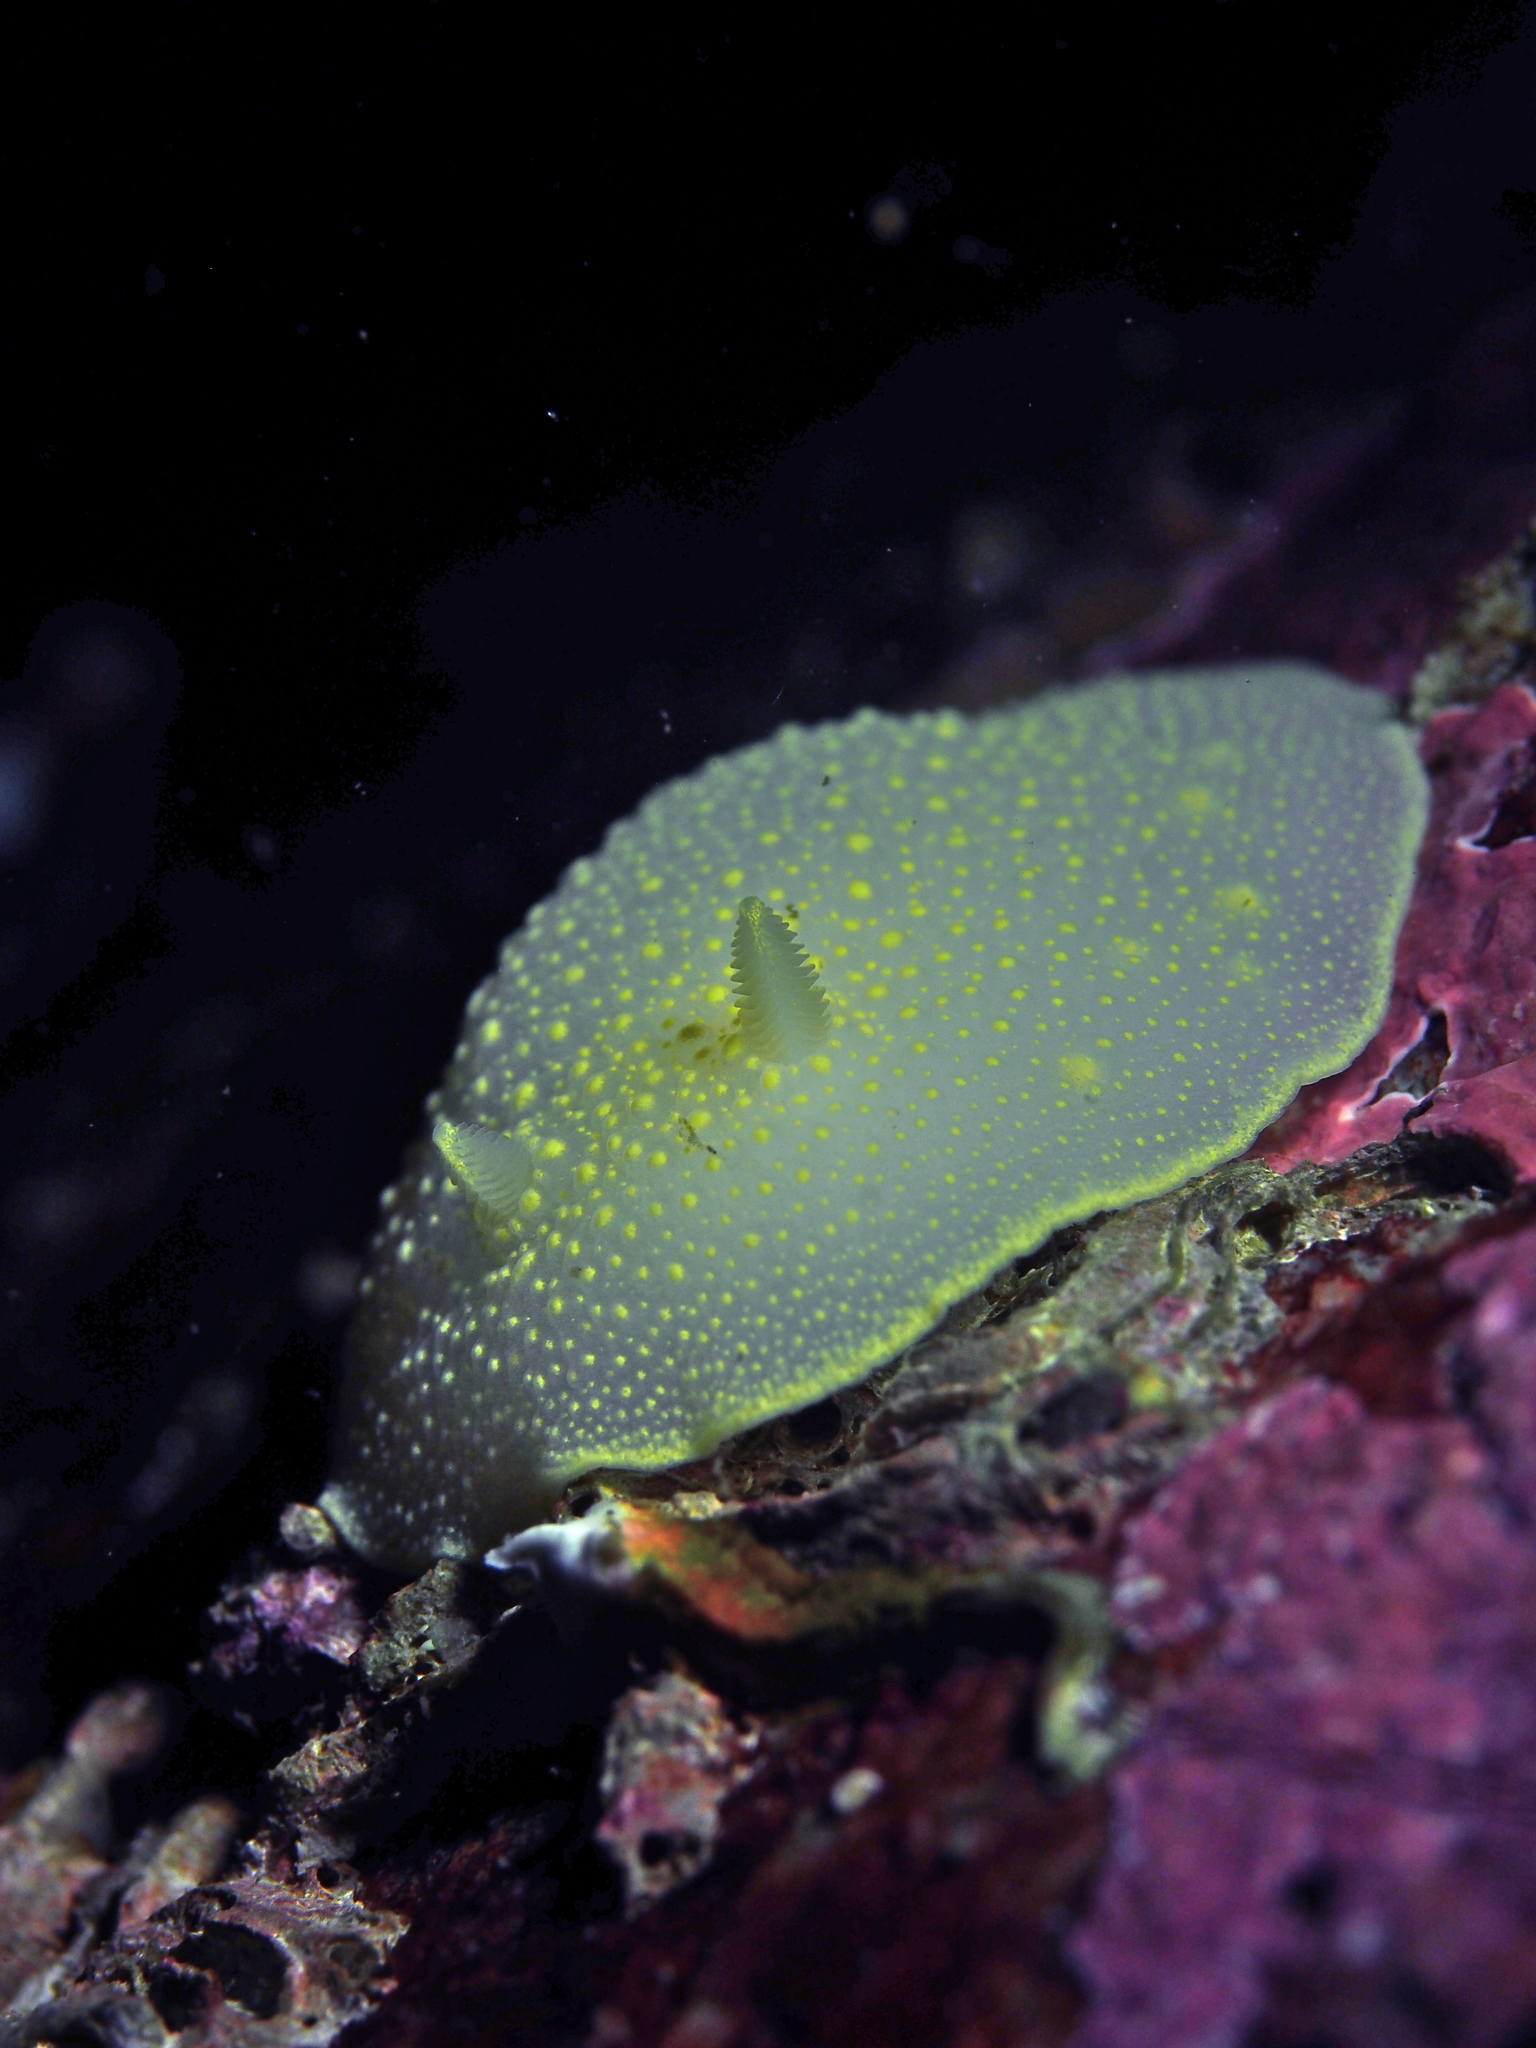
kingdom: Animalia
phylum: Mollusca
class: Gastropoda
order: Nudibranchia
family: Cadlinidae
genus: Cadlina
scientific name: Cadlina laevis
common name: White atlantic cadlina
